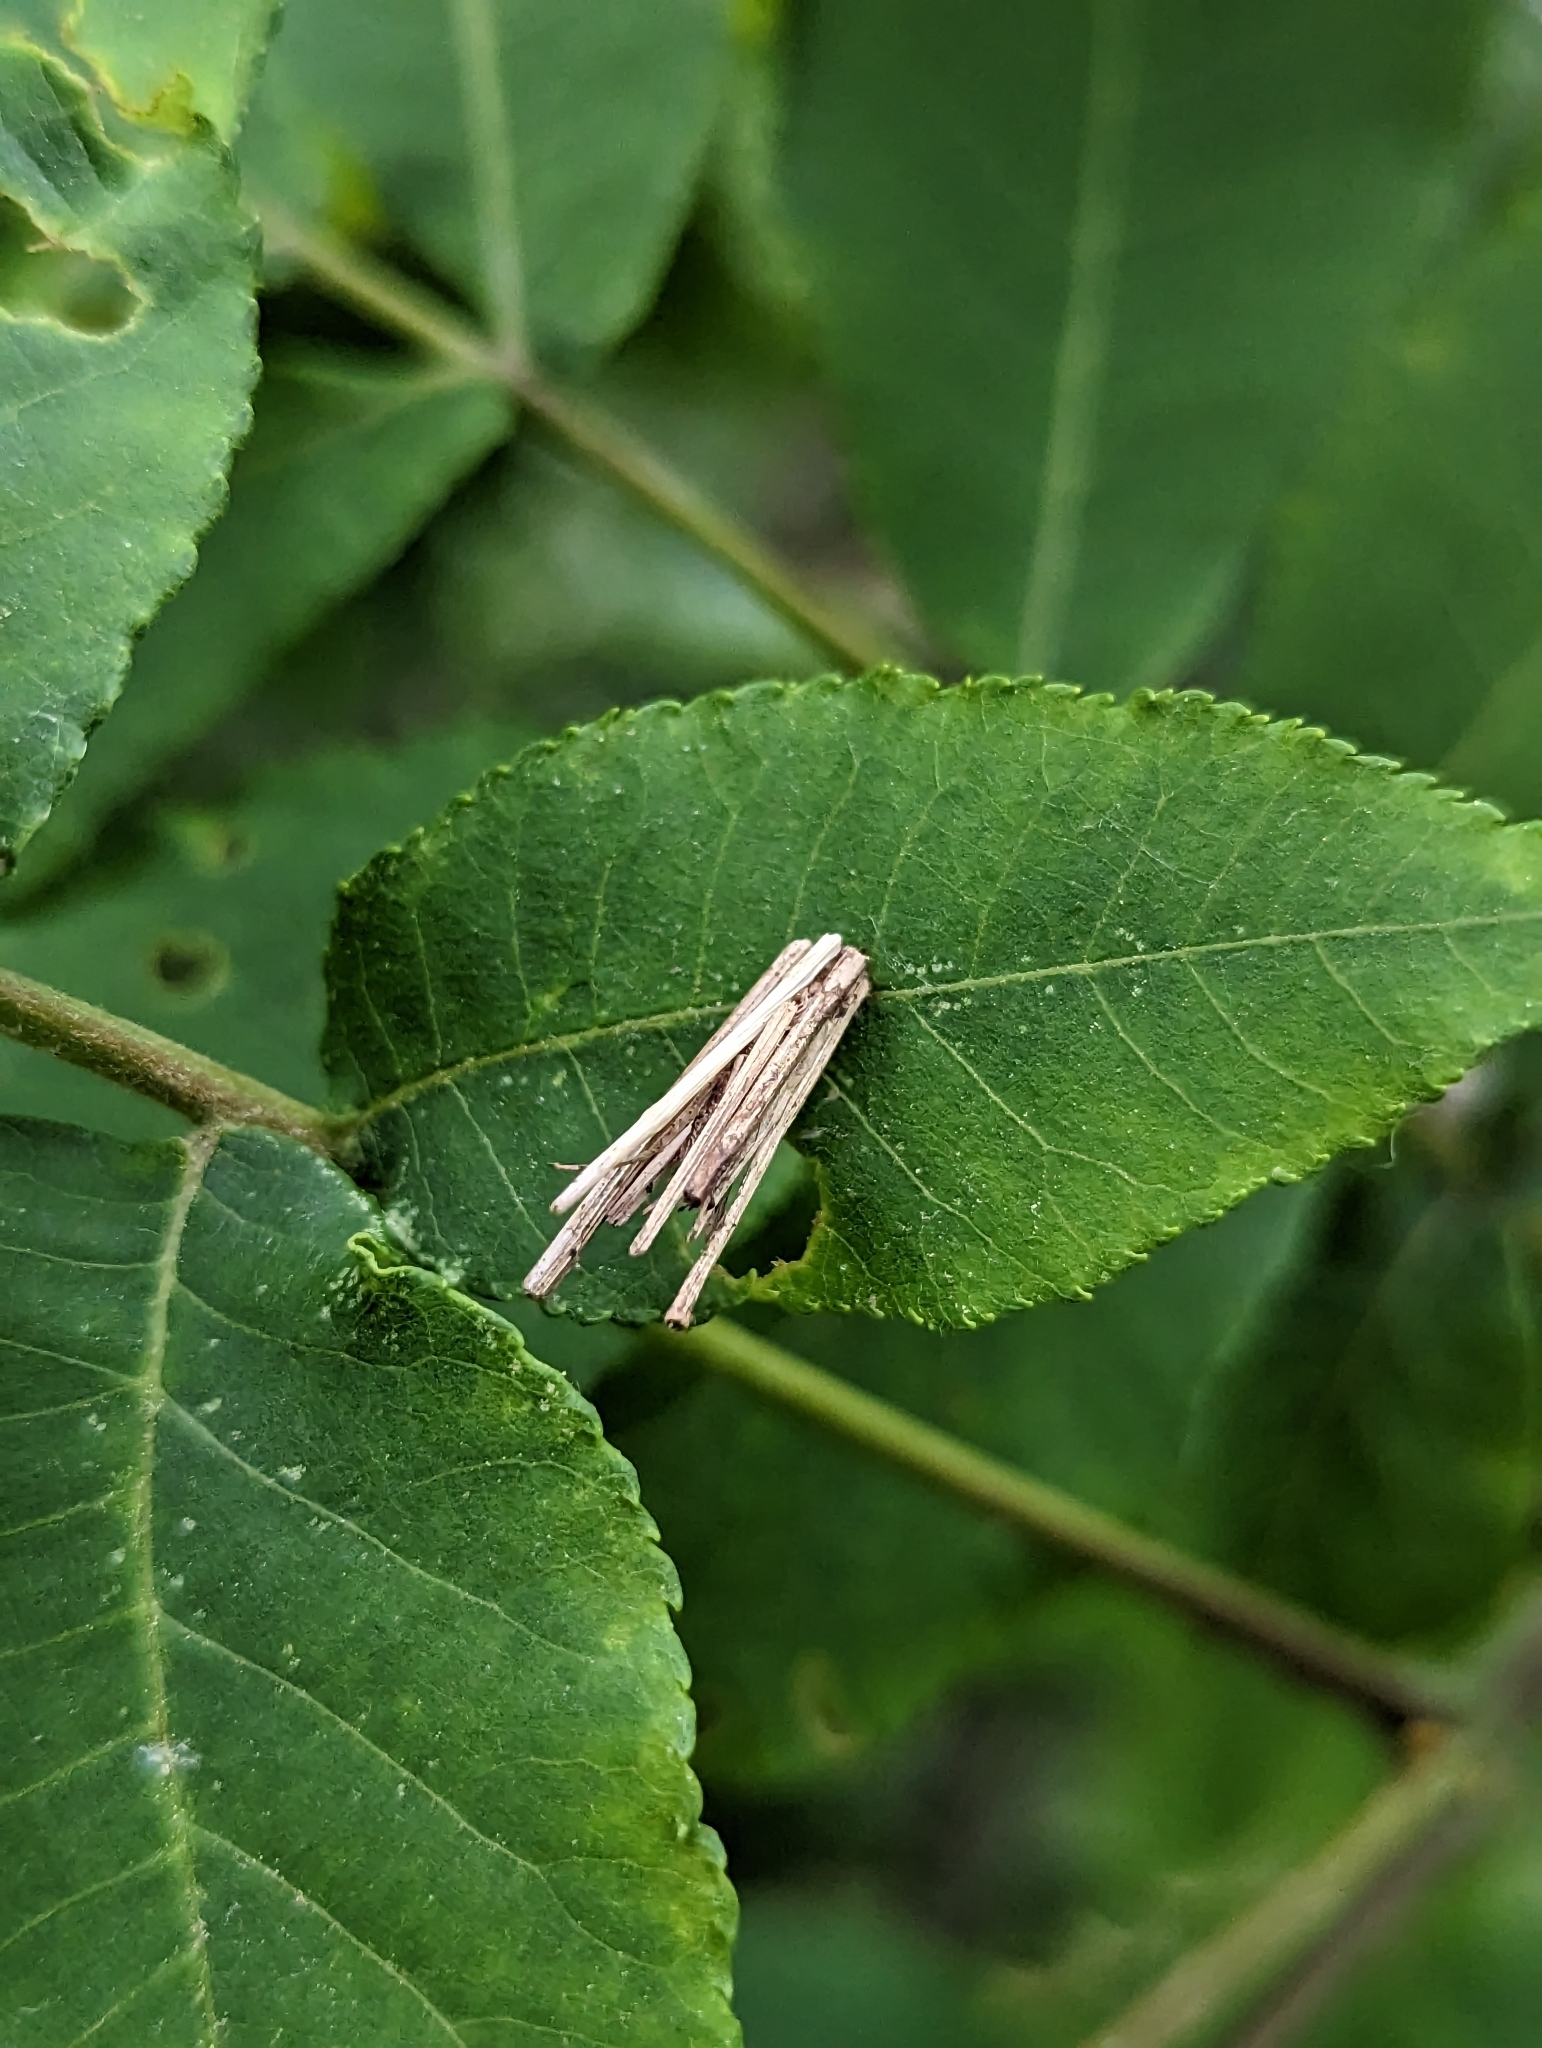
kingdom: Animalia
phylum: Arthropoda
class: Insecta
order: Lepidoptera
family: Psychidae
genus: Psyche
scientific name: Psyche casta
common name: Common sweep
